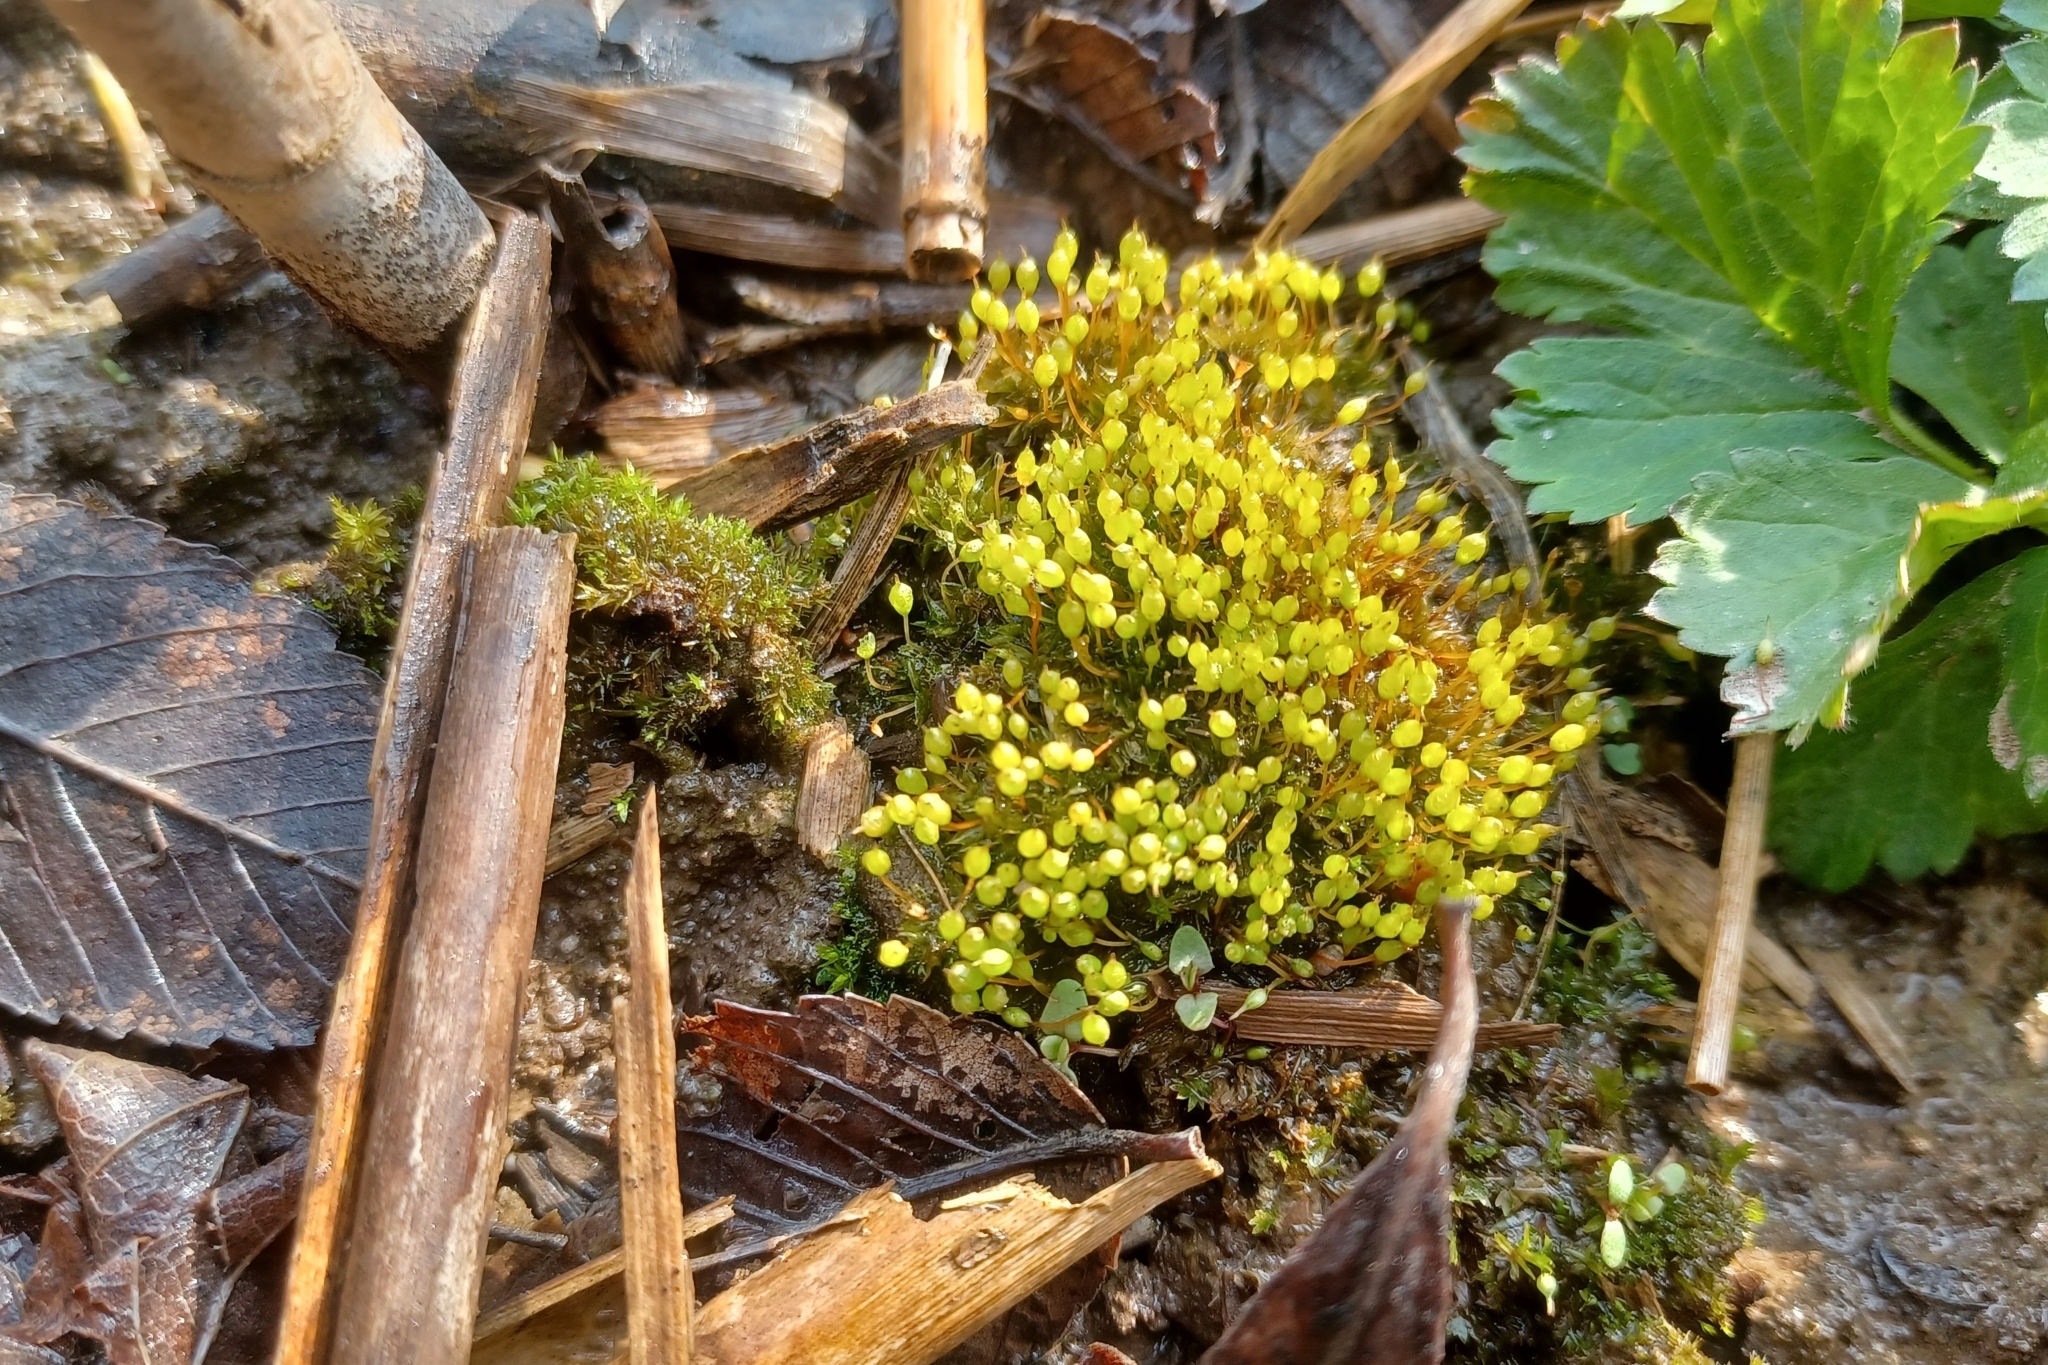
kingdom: Plantae
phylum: Bryophyta
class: Bryopsida
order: Funariales
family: Funariaceae
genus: Physcomitrium
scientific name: Physcomitrium pyriforme
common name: Common bladder-moss
